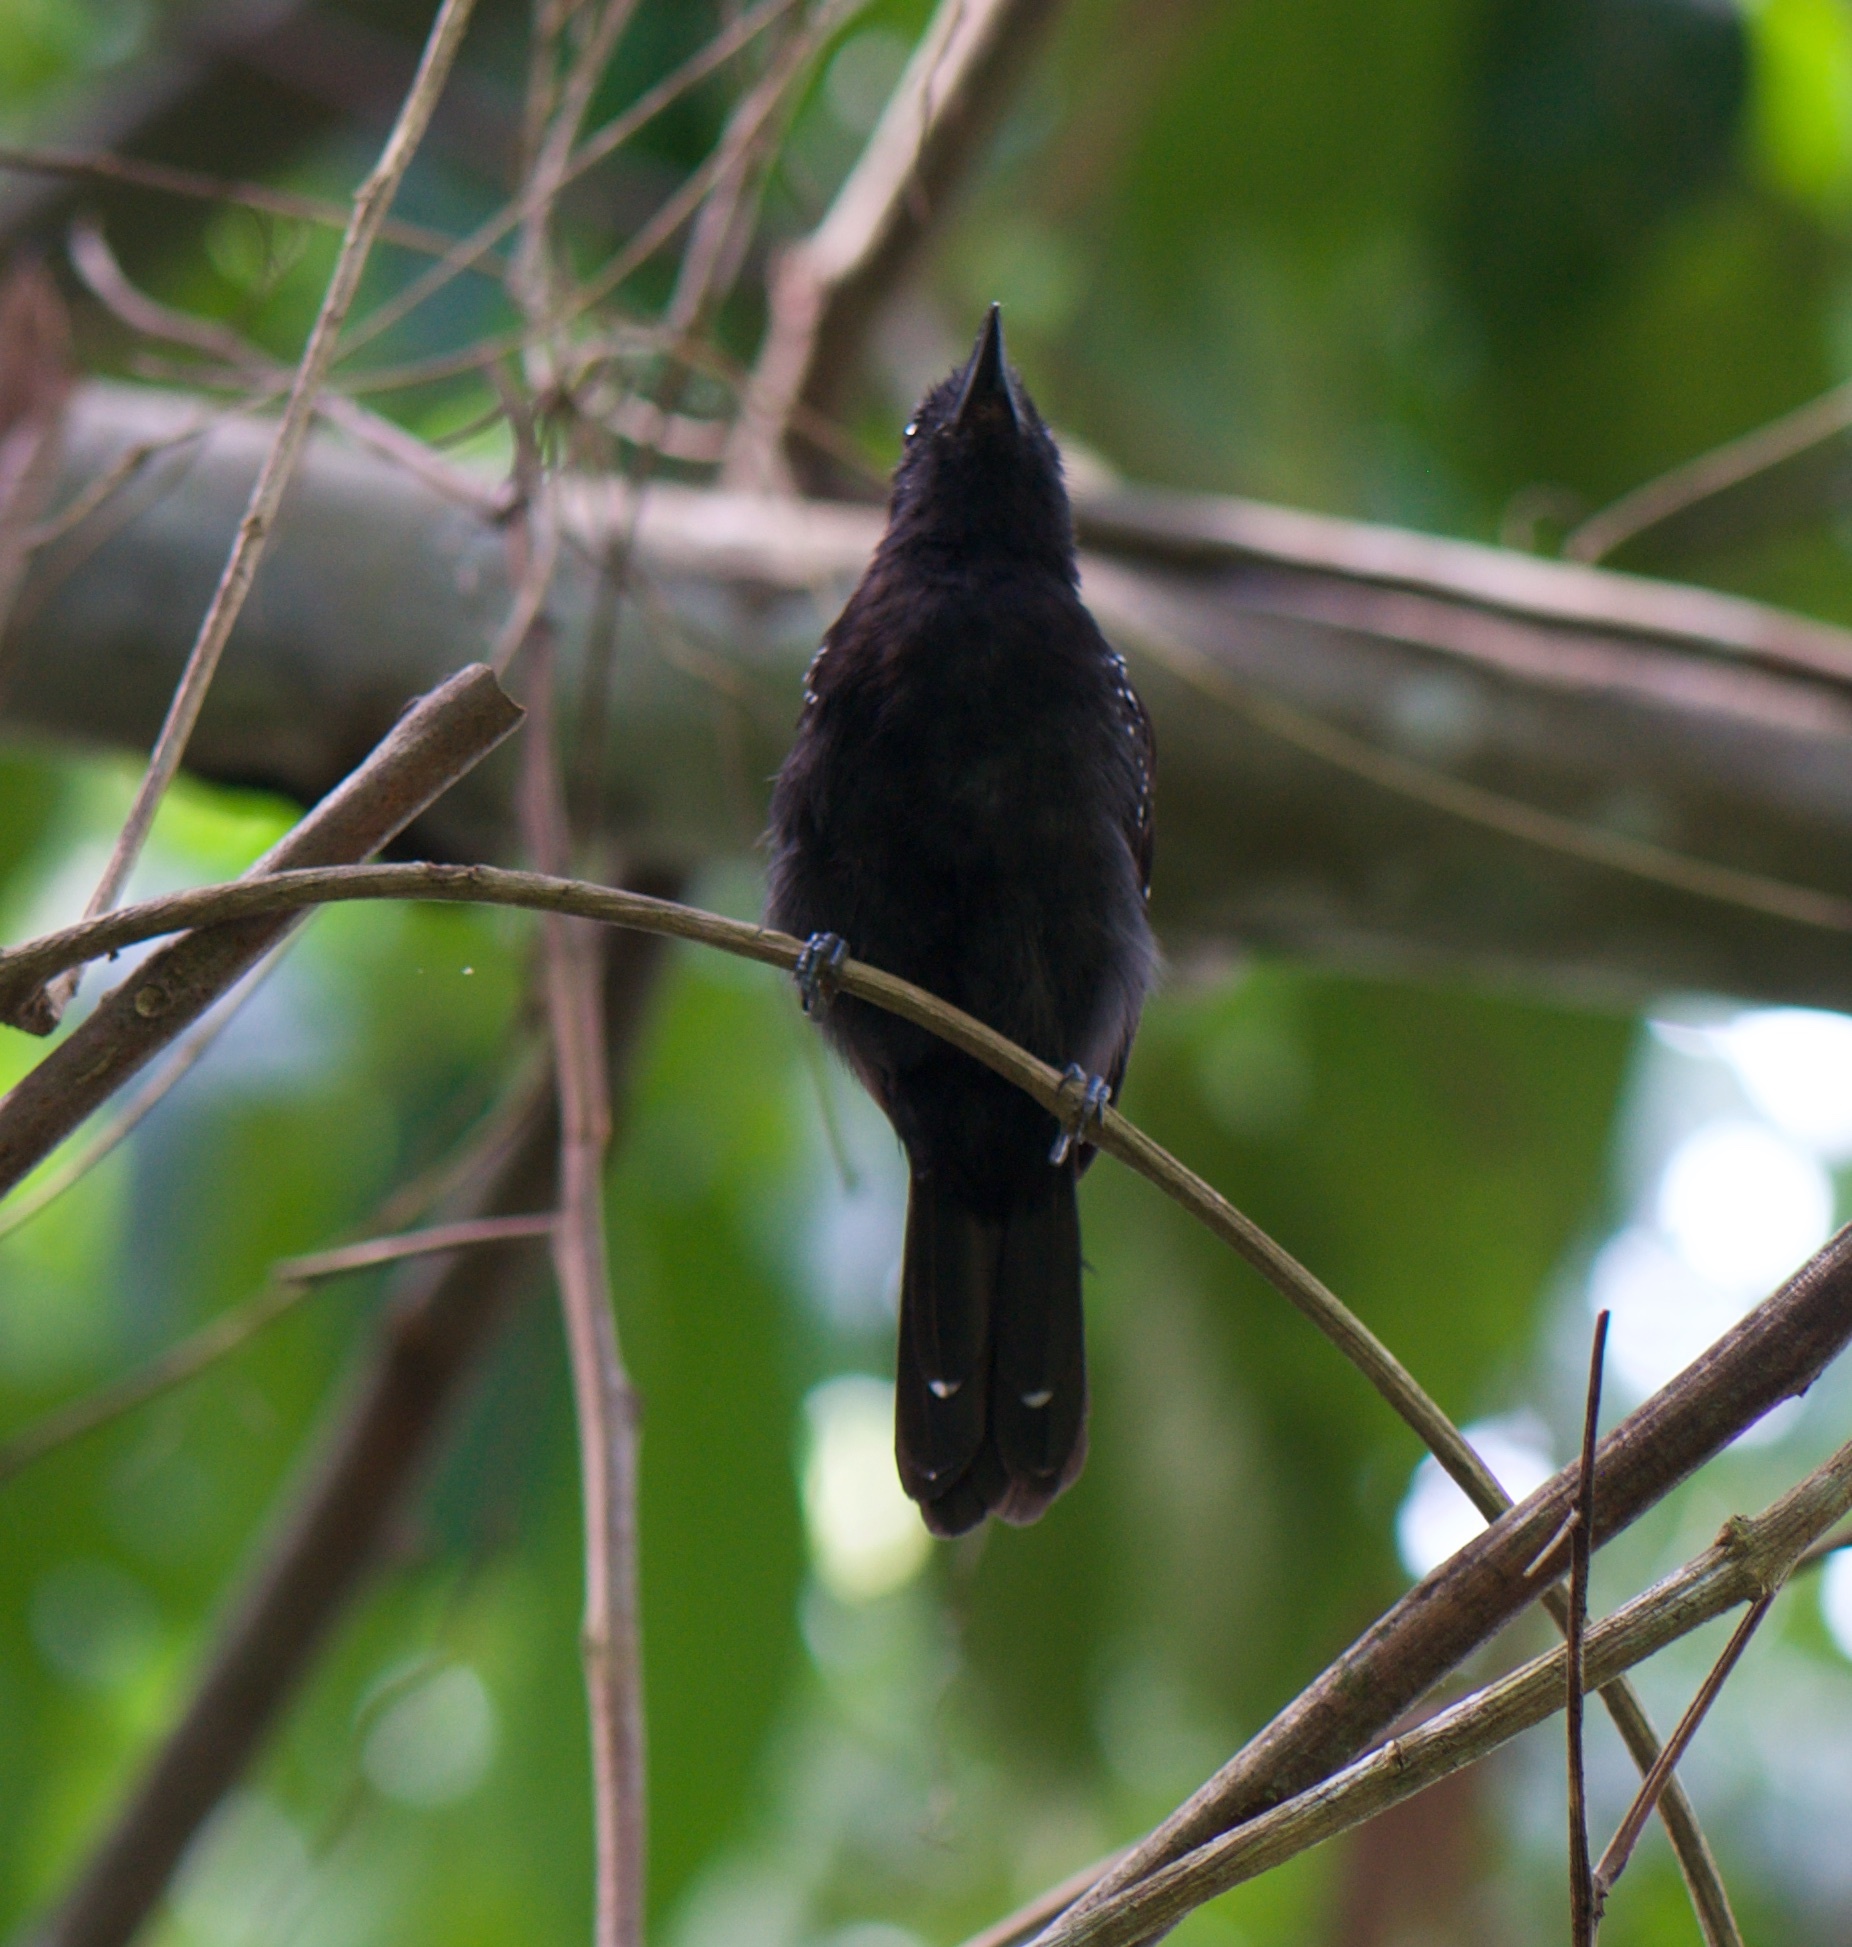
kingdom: Animalia
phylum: Chordata
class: Aves
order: Passeriformes
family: Thamnophilidae
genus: Thamnophilus
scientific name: Thamnophilus bridgesi
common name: Black-hooded antshrike
